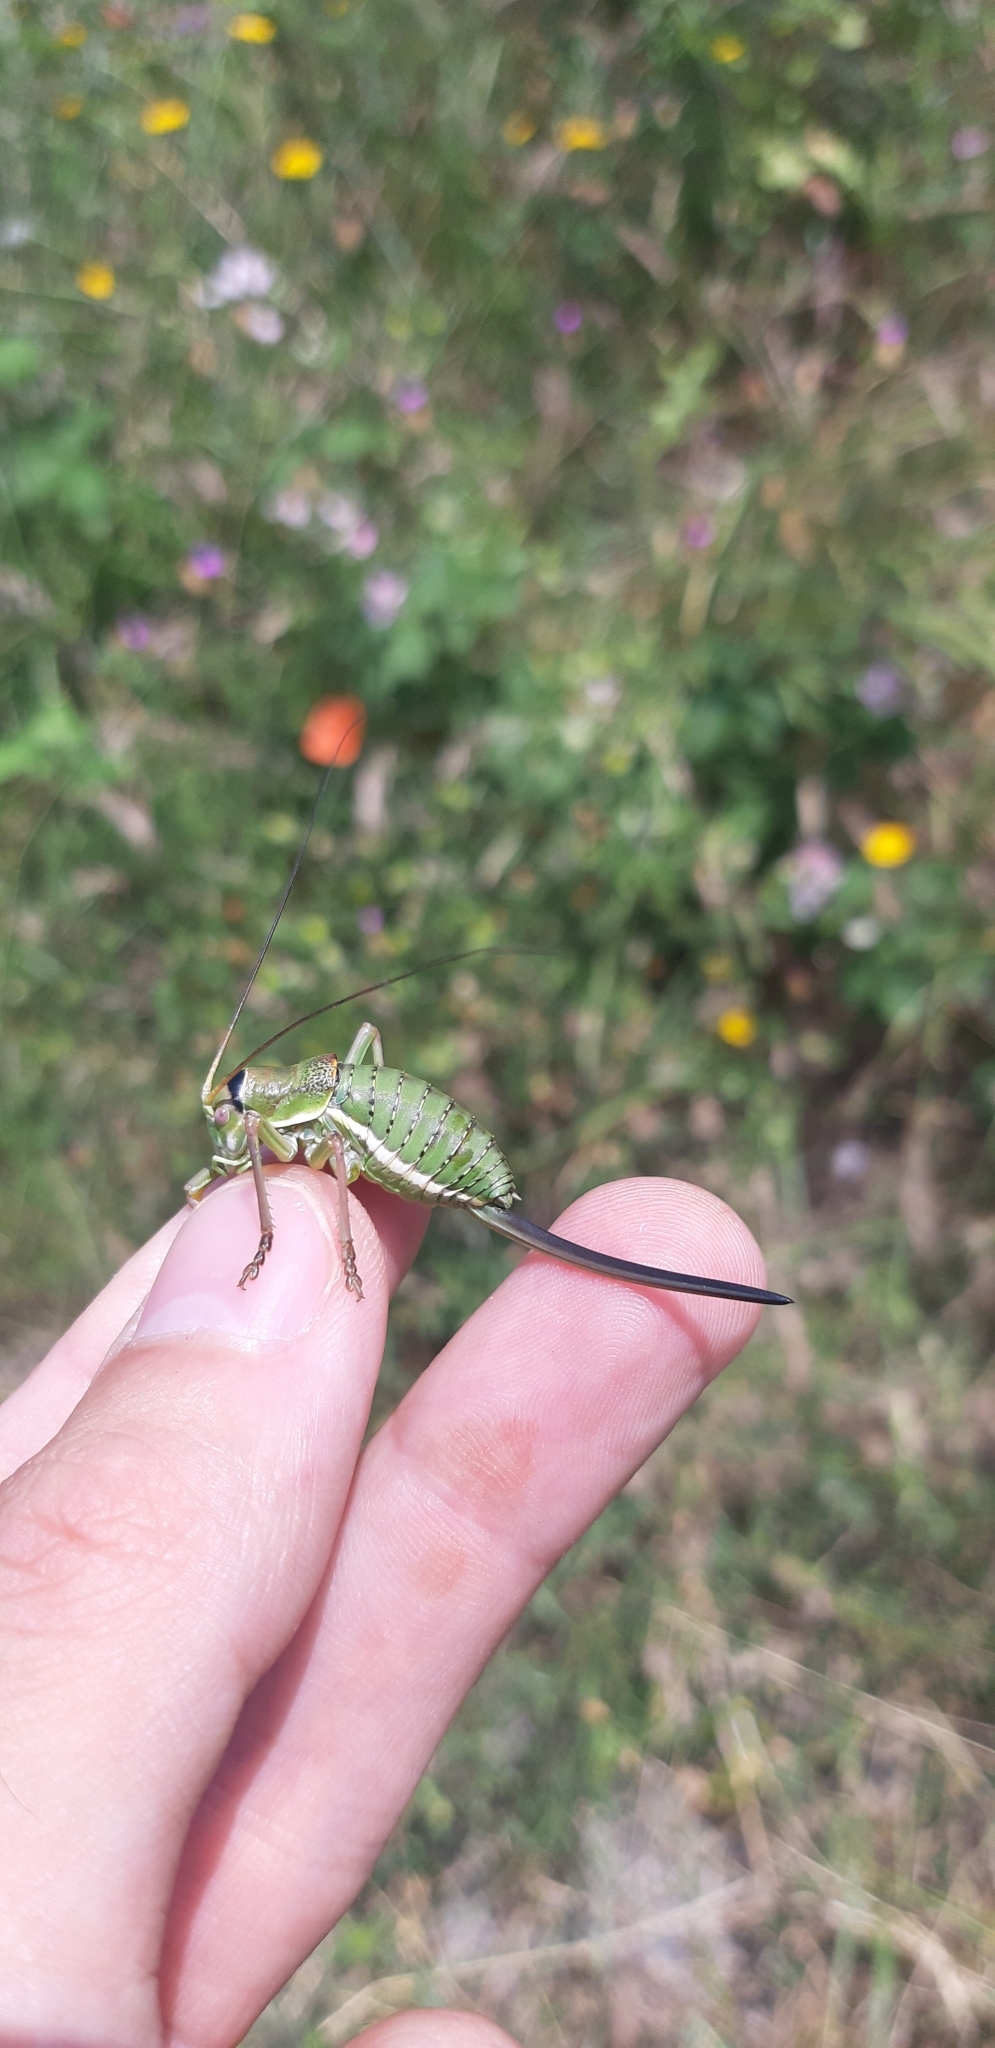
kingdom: Animalia
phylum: Arthropoda
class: Insecta
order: Orthoptera
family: Tettigoniidae
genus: Ephippiger
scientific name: Ephippiger apulus
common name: Apulian saddle bush-cricket
